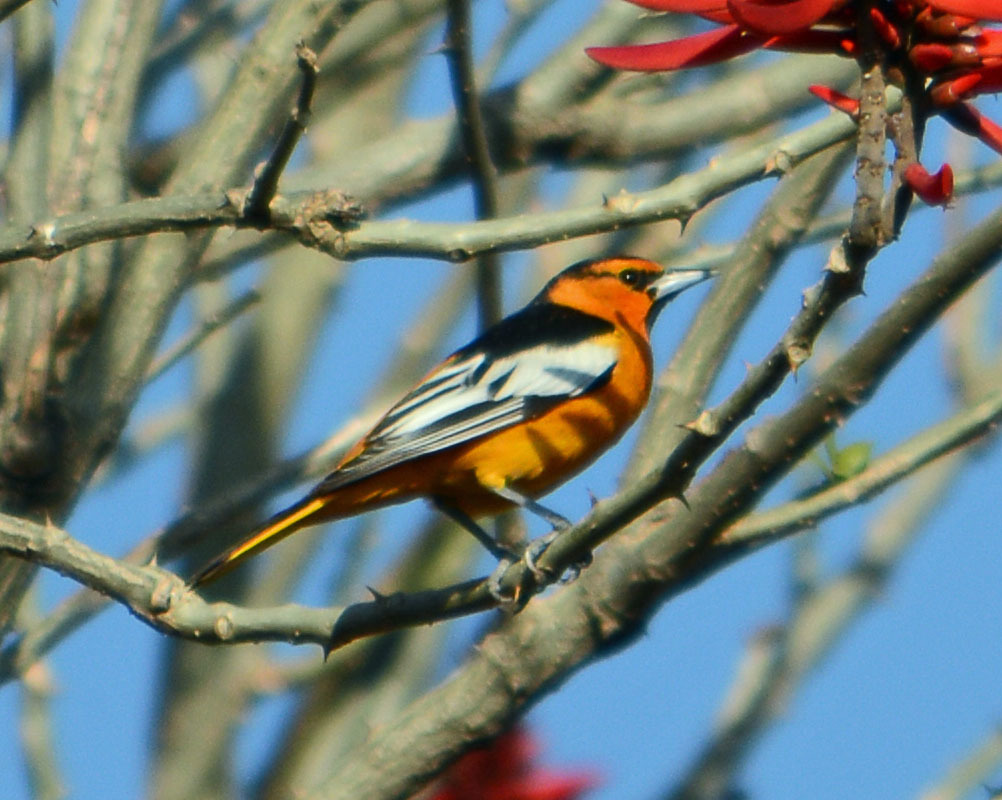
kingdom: Animalia
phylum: Chordata
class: Aves
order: Passeriformes
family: Icteridae
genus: Icterus
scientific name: Icterus bullockii
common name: Bullock's oriole
